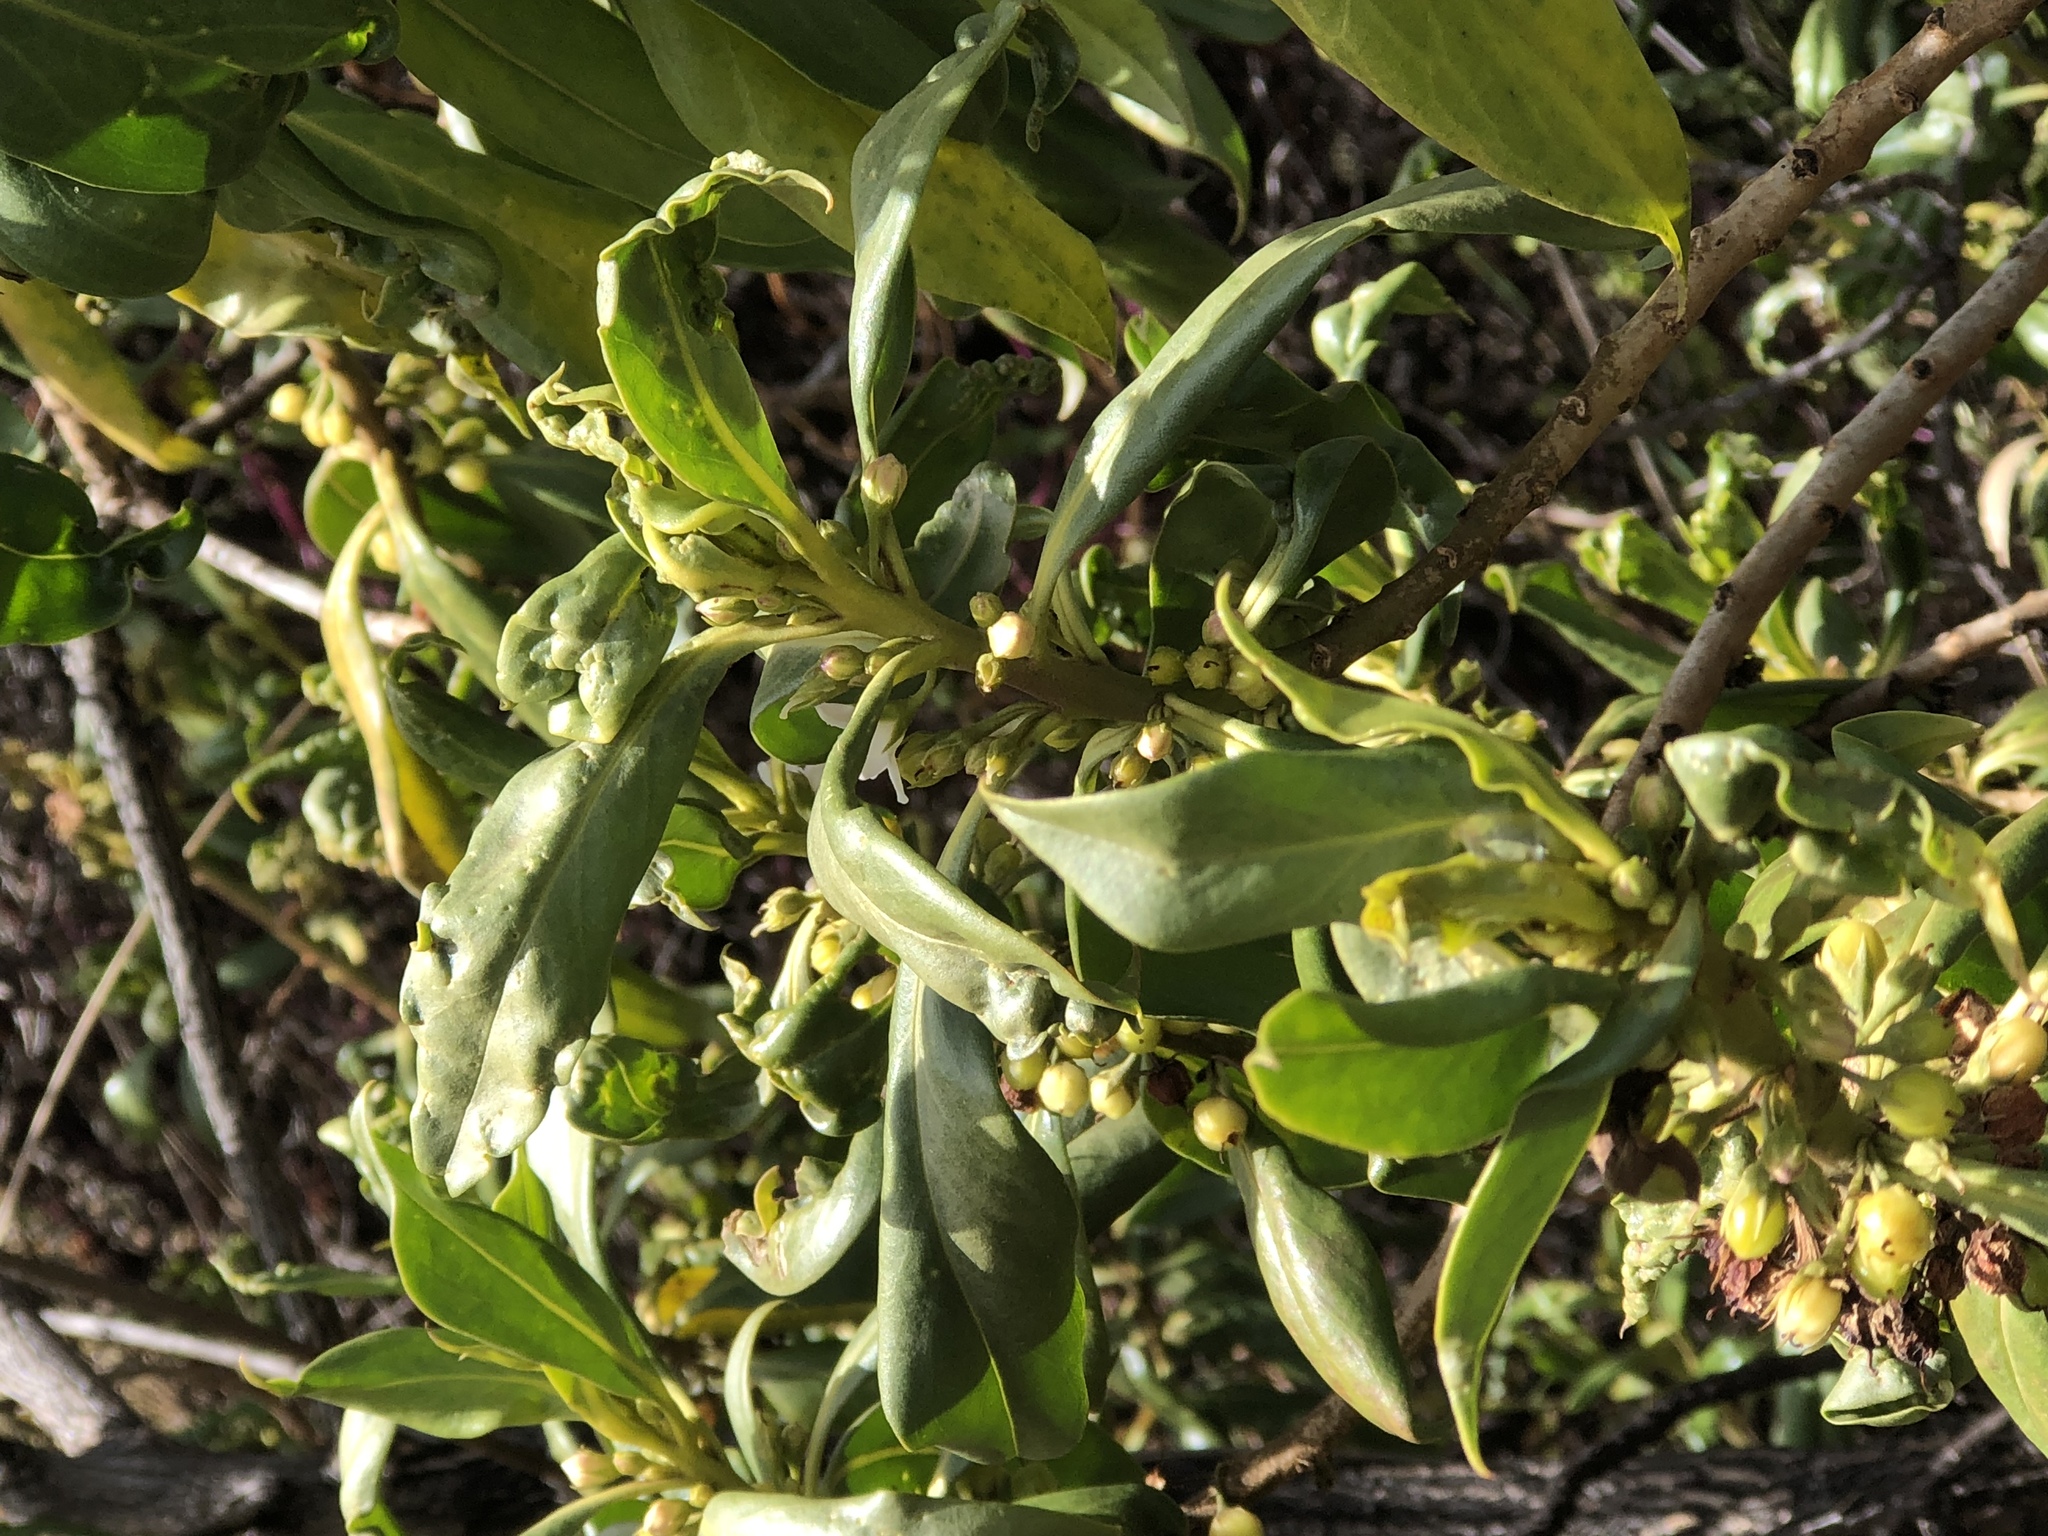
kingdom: Plantae
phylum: Tracheophyta
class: Magnoliopsida
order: Santalales
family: Santalaceae
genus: Santalum
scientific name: Santalum paniculatum
